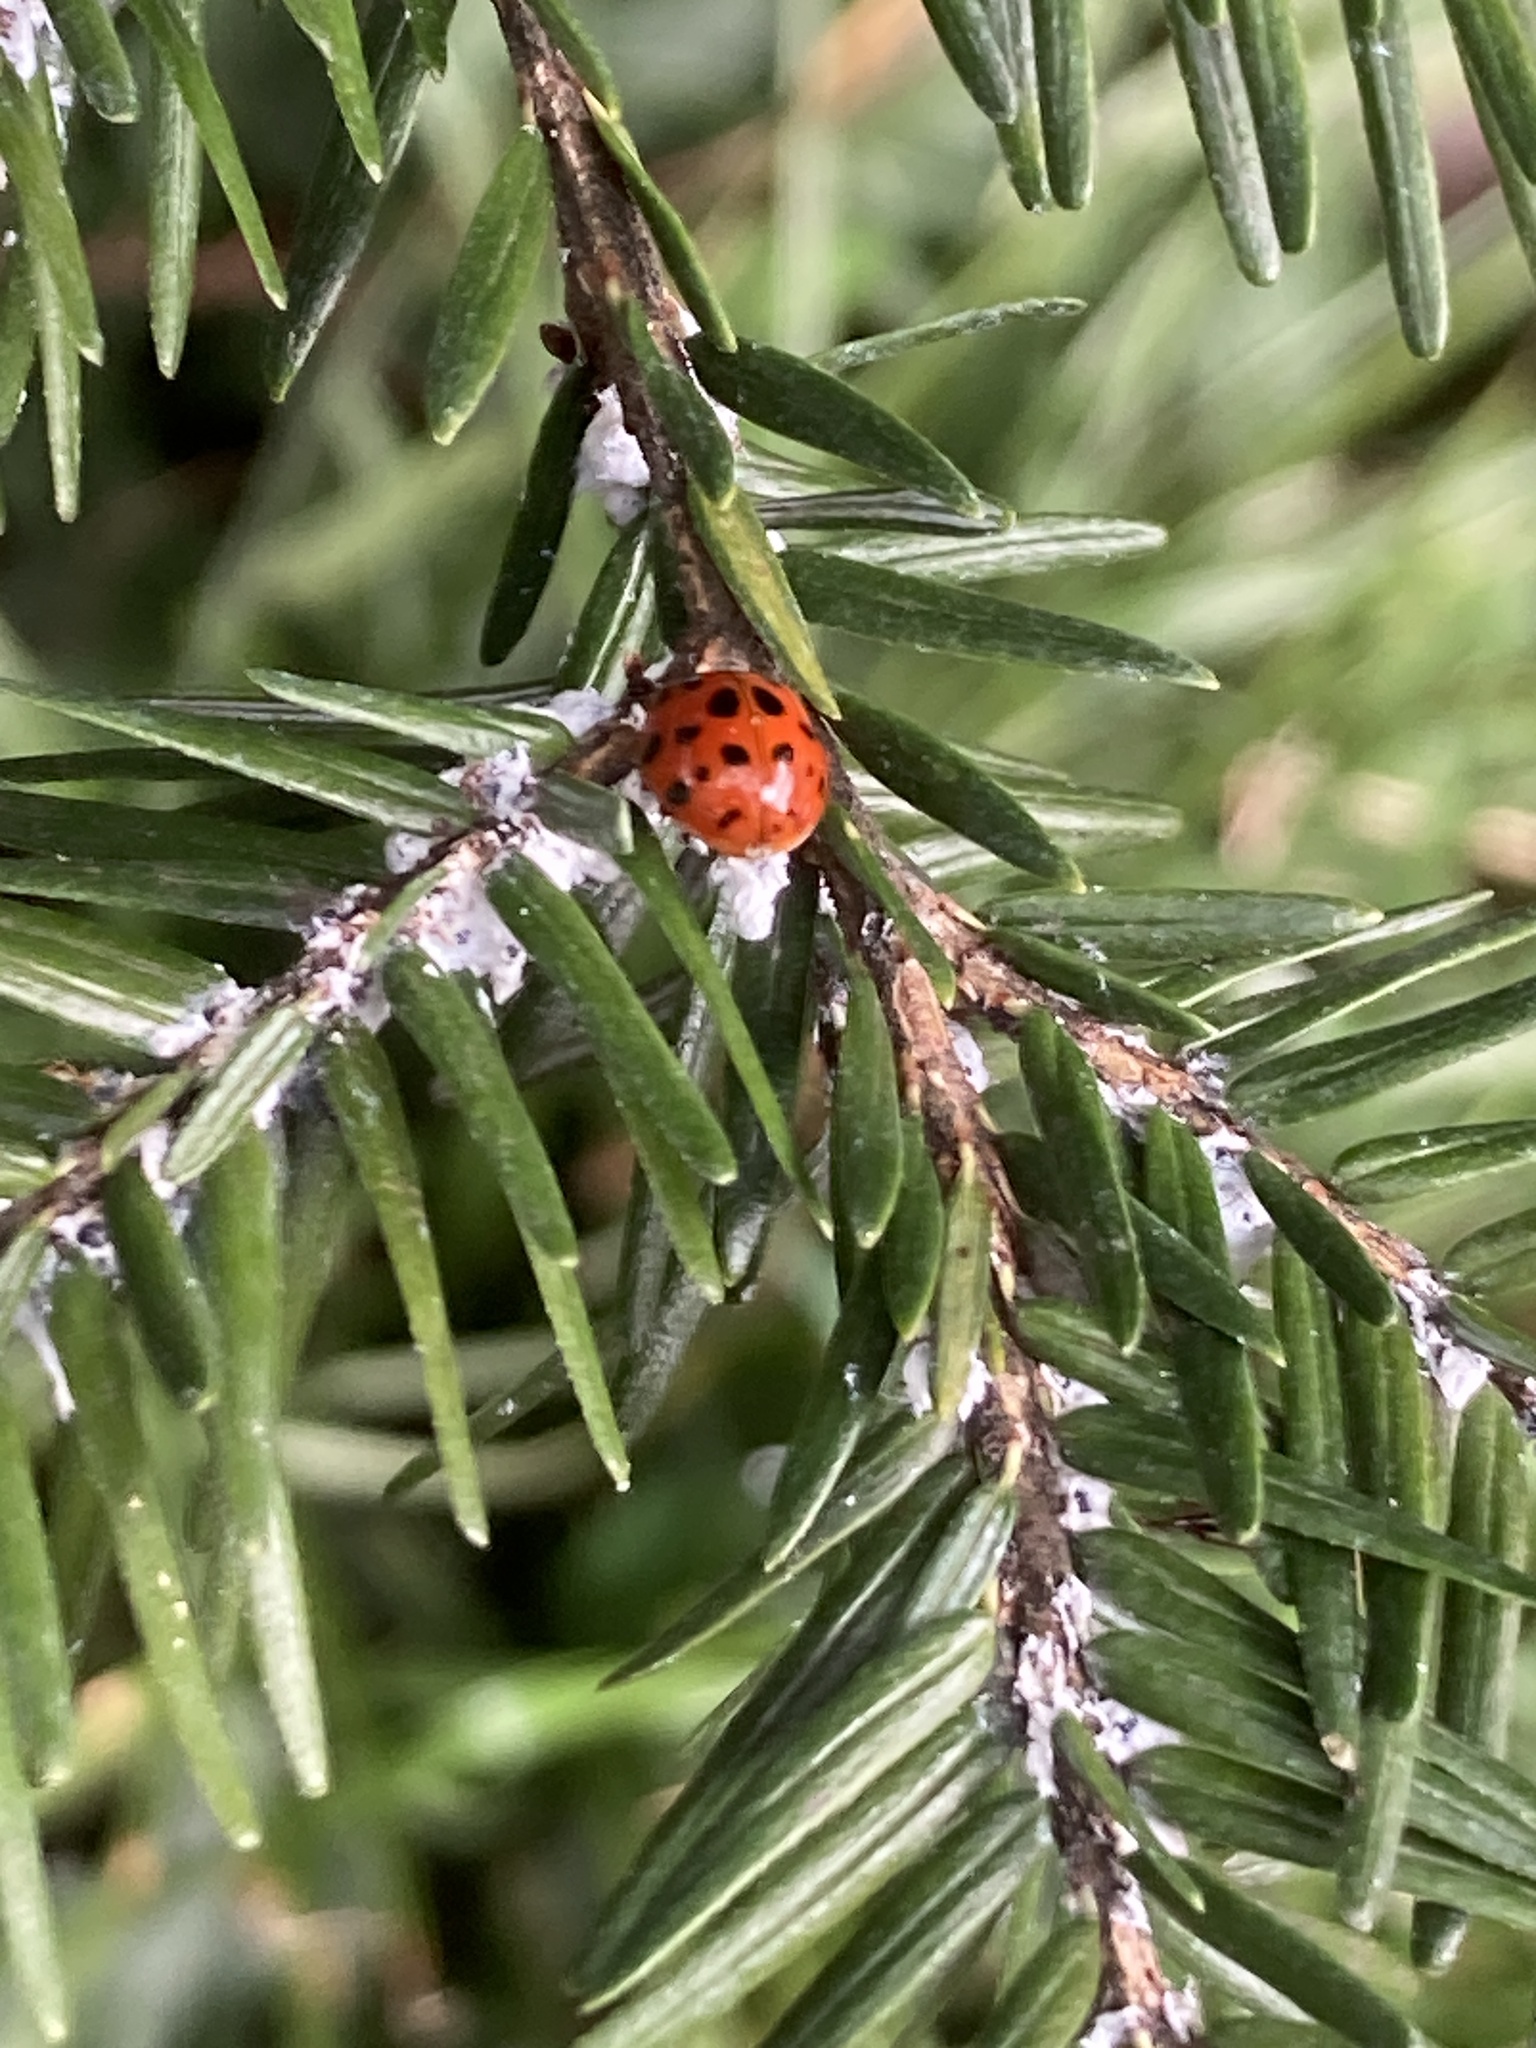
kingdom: Animalia
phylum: Arthropoda
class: Insecta
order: Coleoptera
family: Coccinellidae
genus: Harmonia
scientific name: Harmonia axyridis
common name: Harlequin ladybird
